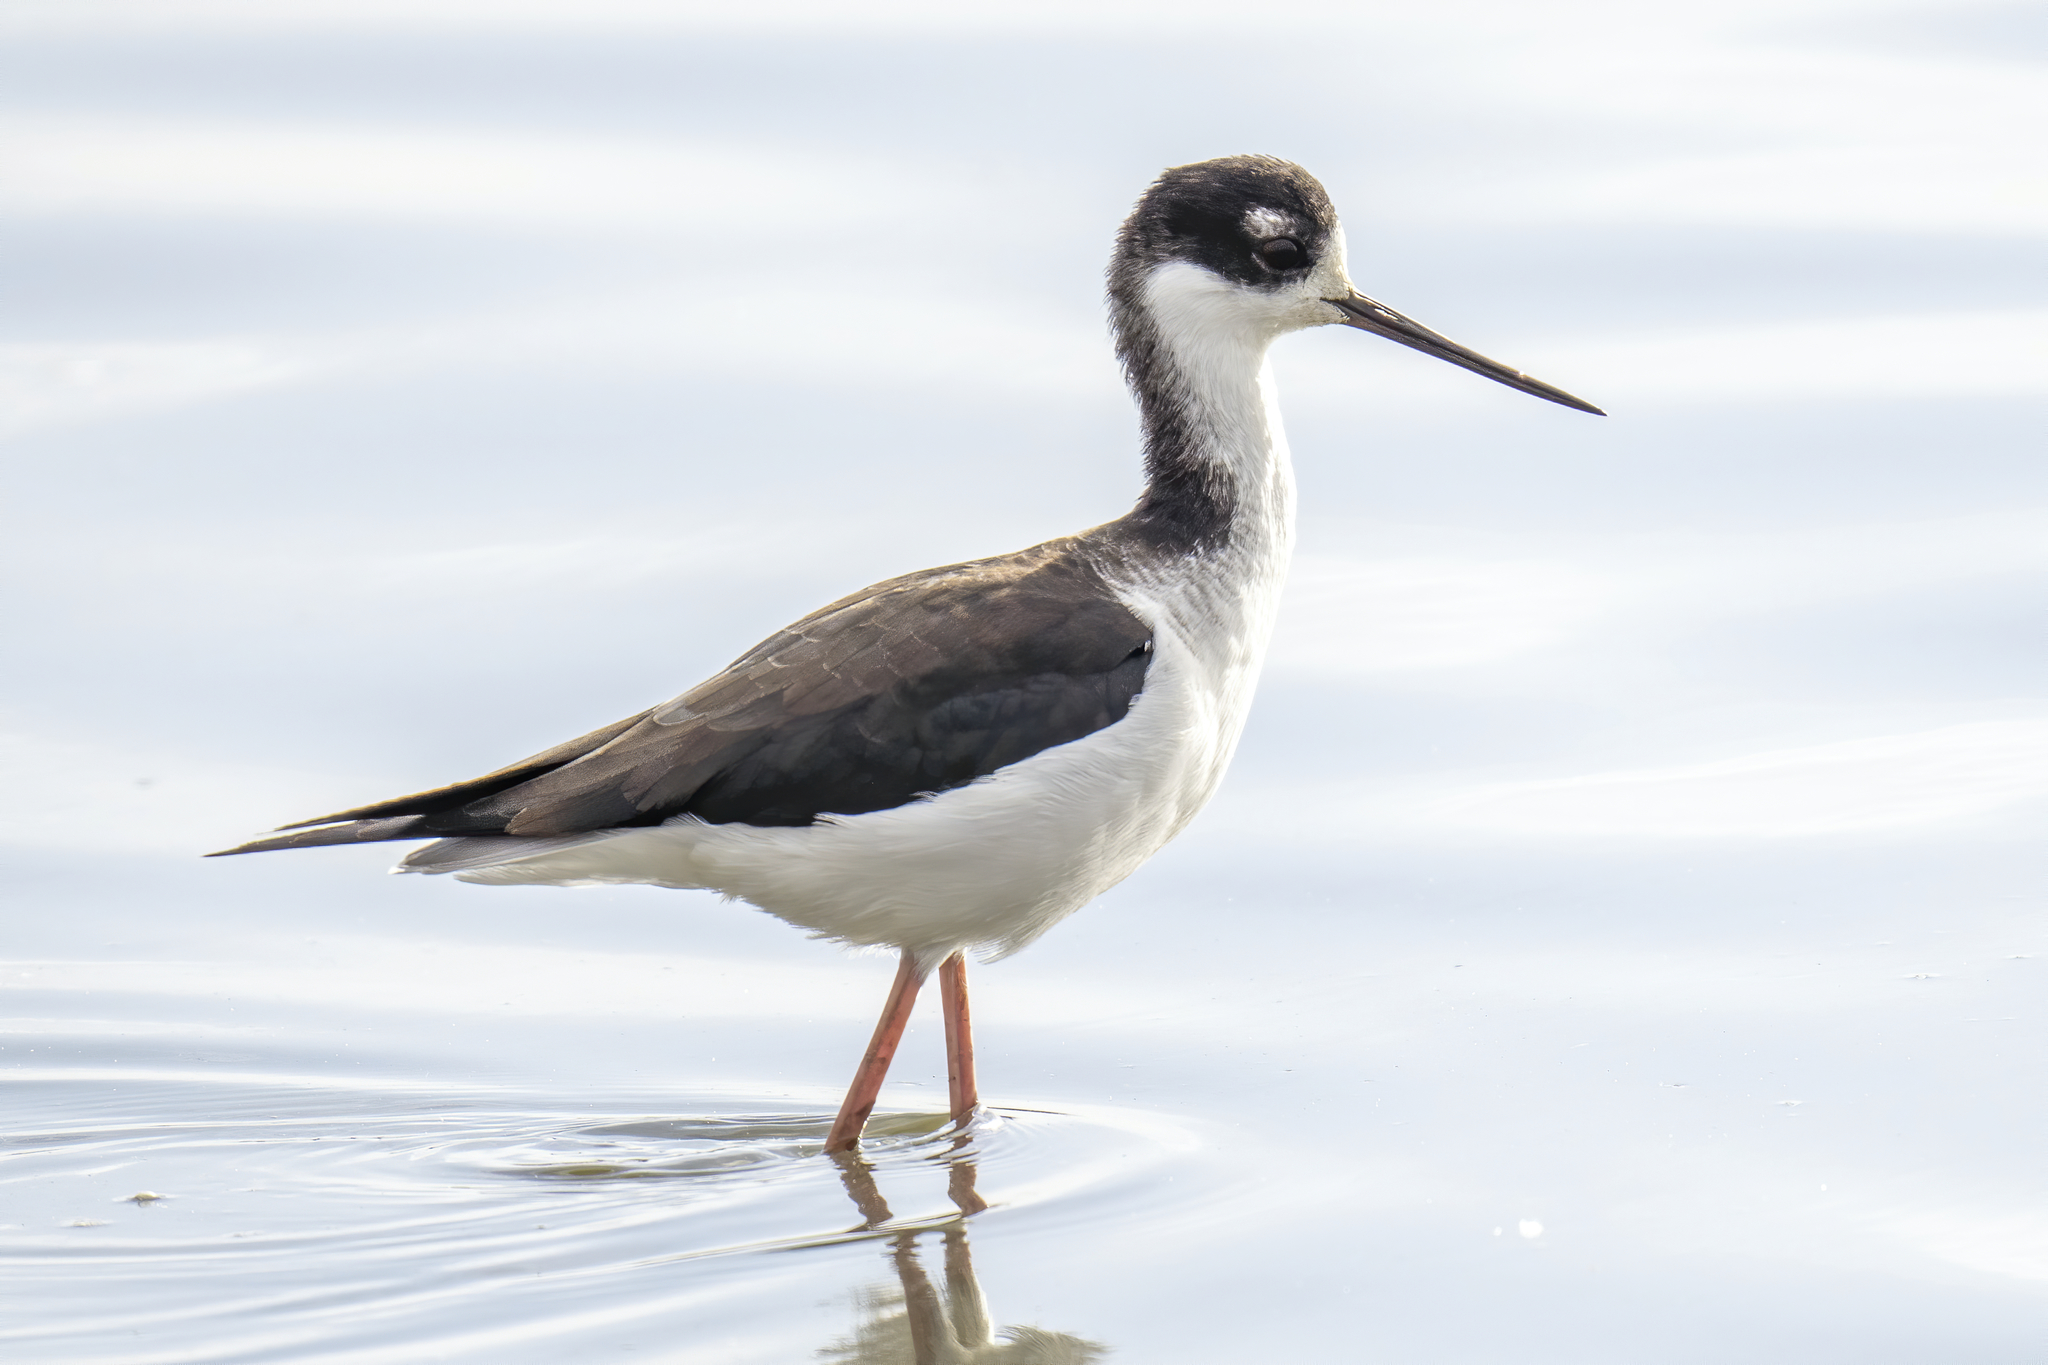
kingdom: Animalia
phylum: Chordata
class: Aves
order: Charadriiformes
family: Recurvirostridae
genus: Himantopus
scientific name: Himantopus mexicanus
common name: Black-necked stilt
